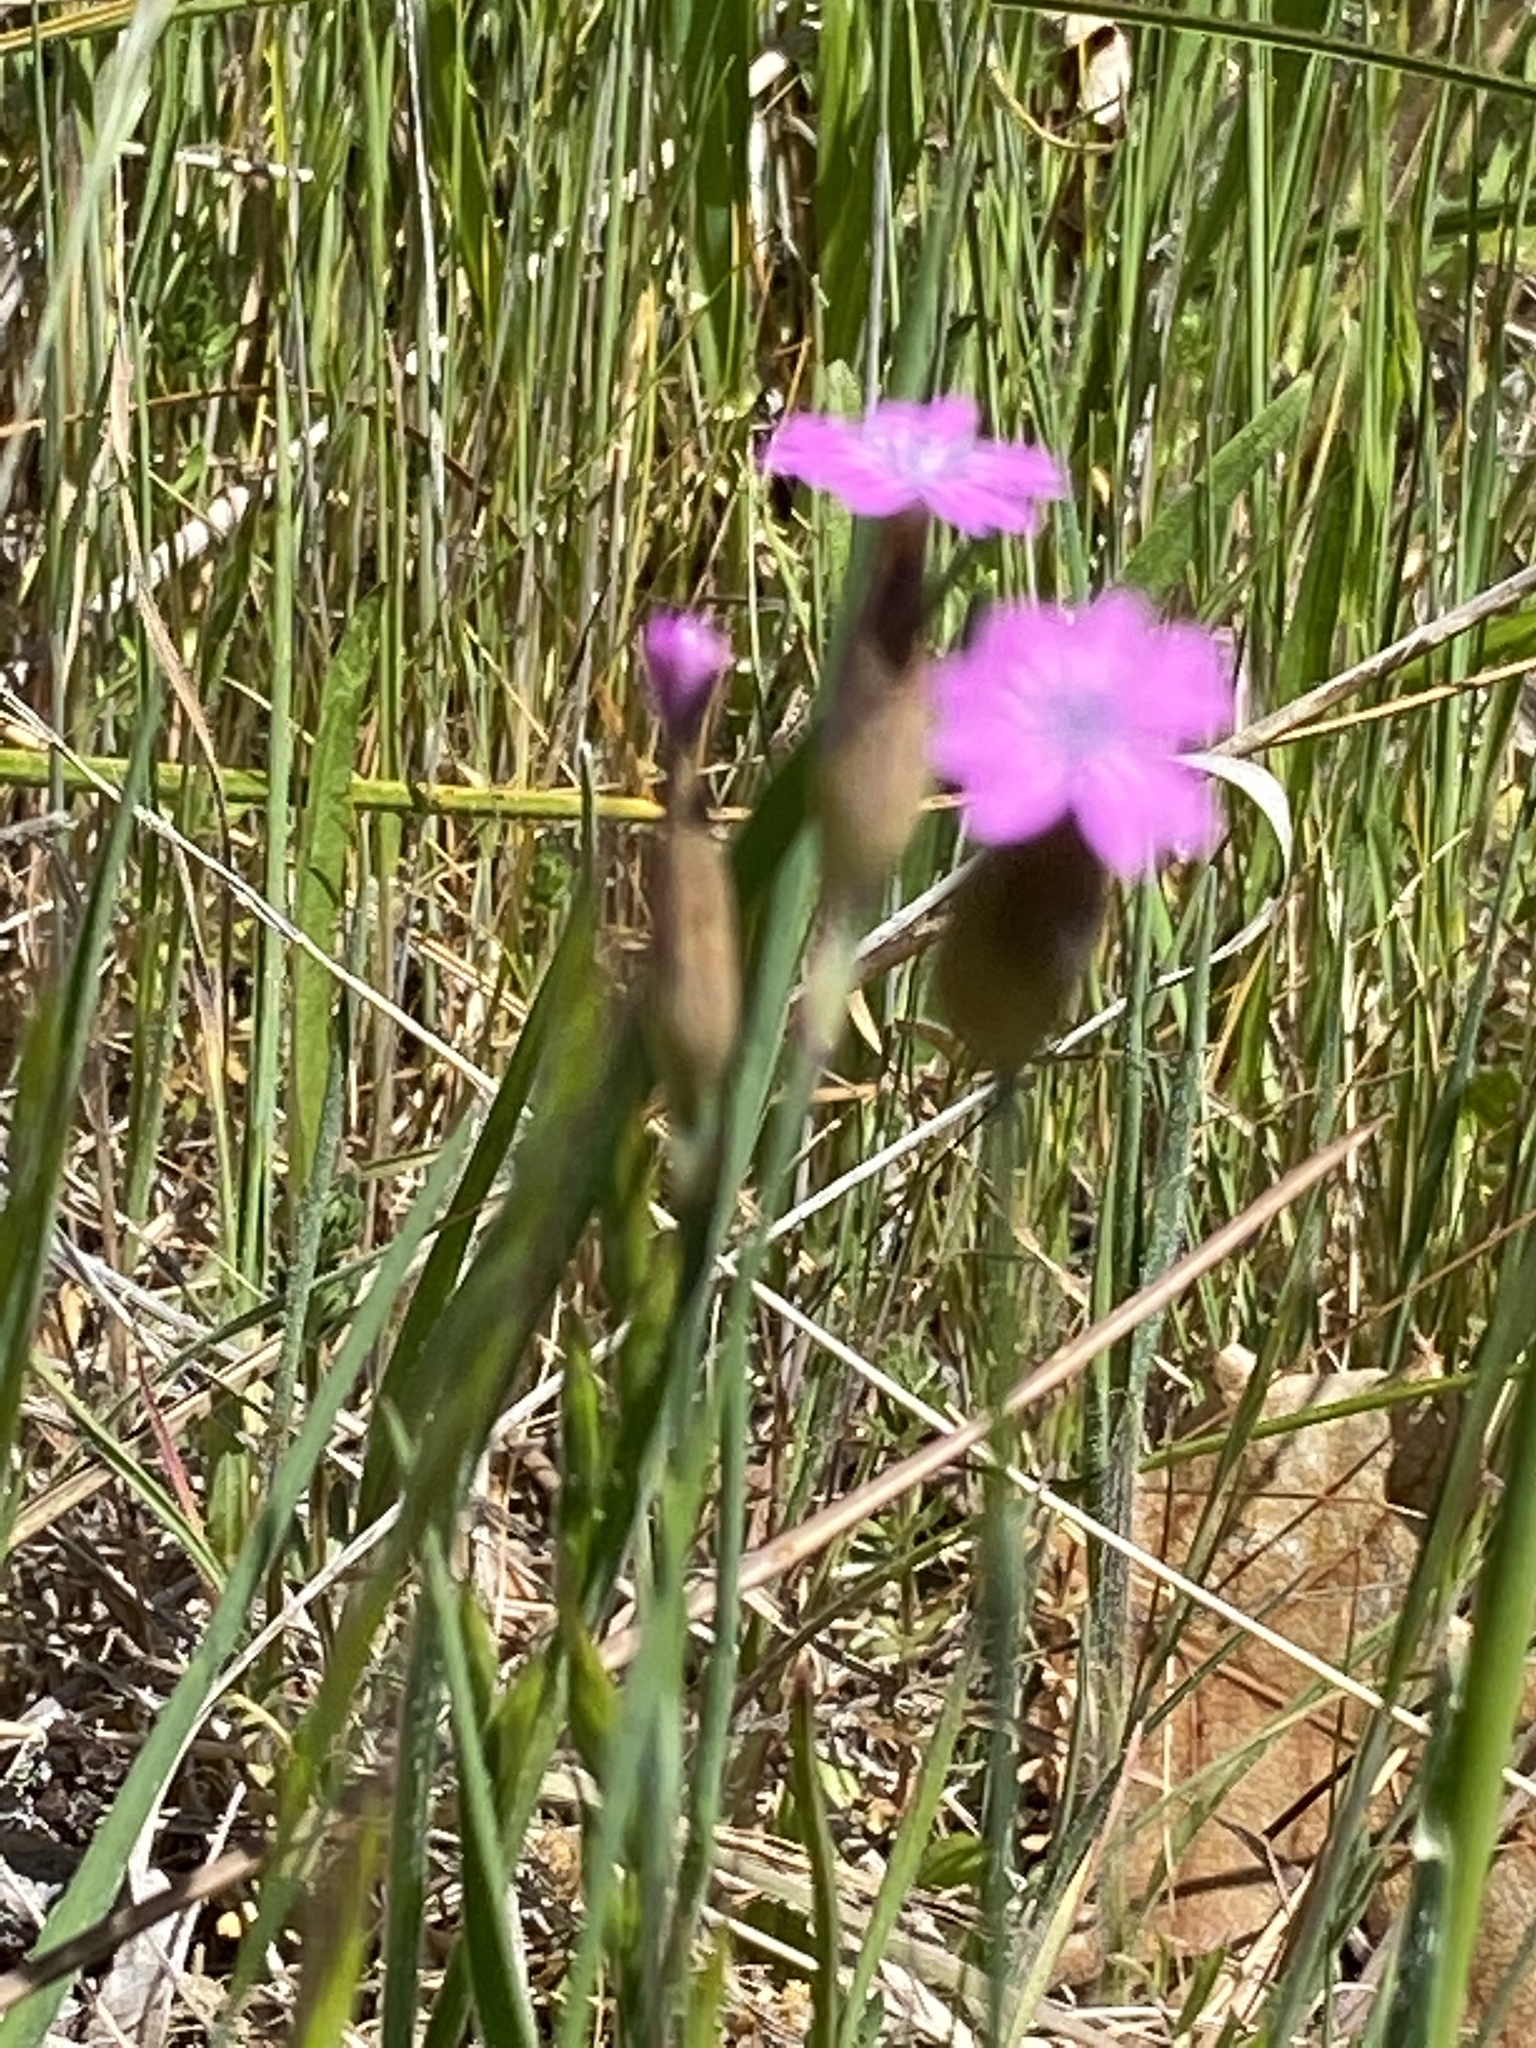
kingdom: Plantae
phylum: Tracheophyta
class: Magnoliopsida
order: Caryophyllales
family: Caryophyllaceae
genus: Petrorhagia
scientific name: Petrorhagia dubia
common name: Hairypink
